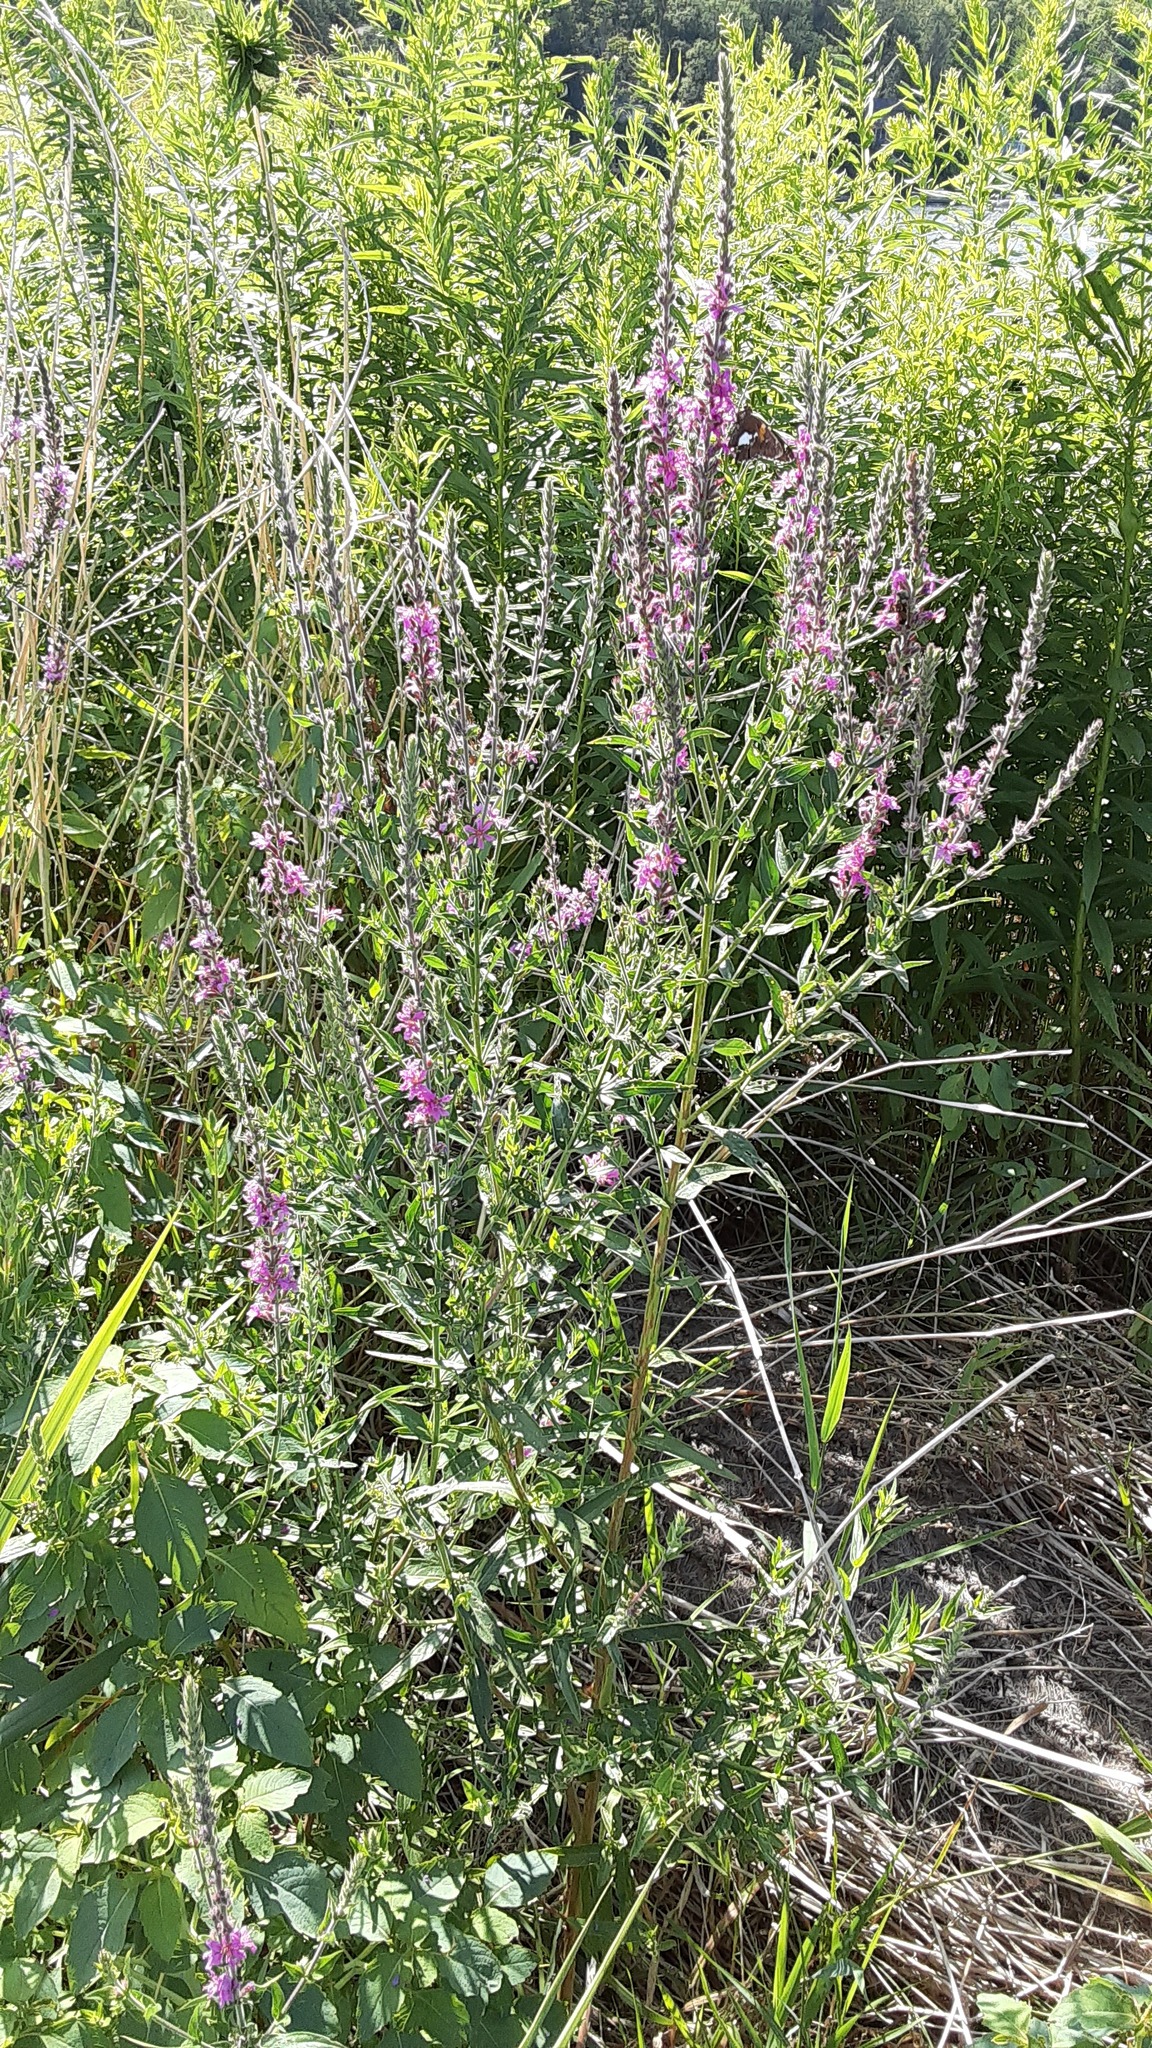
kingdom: Plantae
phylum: Tracheophyta
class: Magnoliopsida
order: Myrtales
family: Lythraceae
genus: Lythrum
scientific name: Lythrum salicaria
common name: Purple loosestrife
